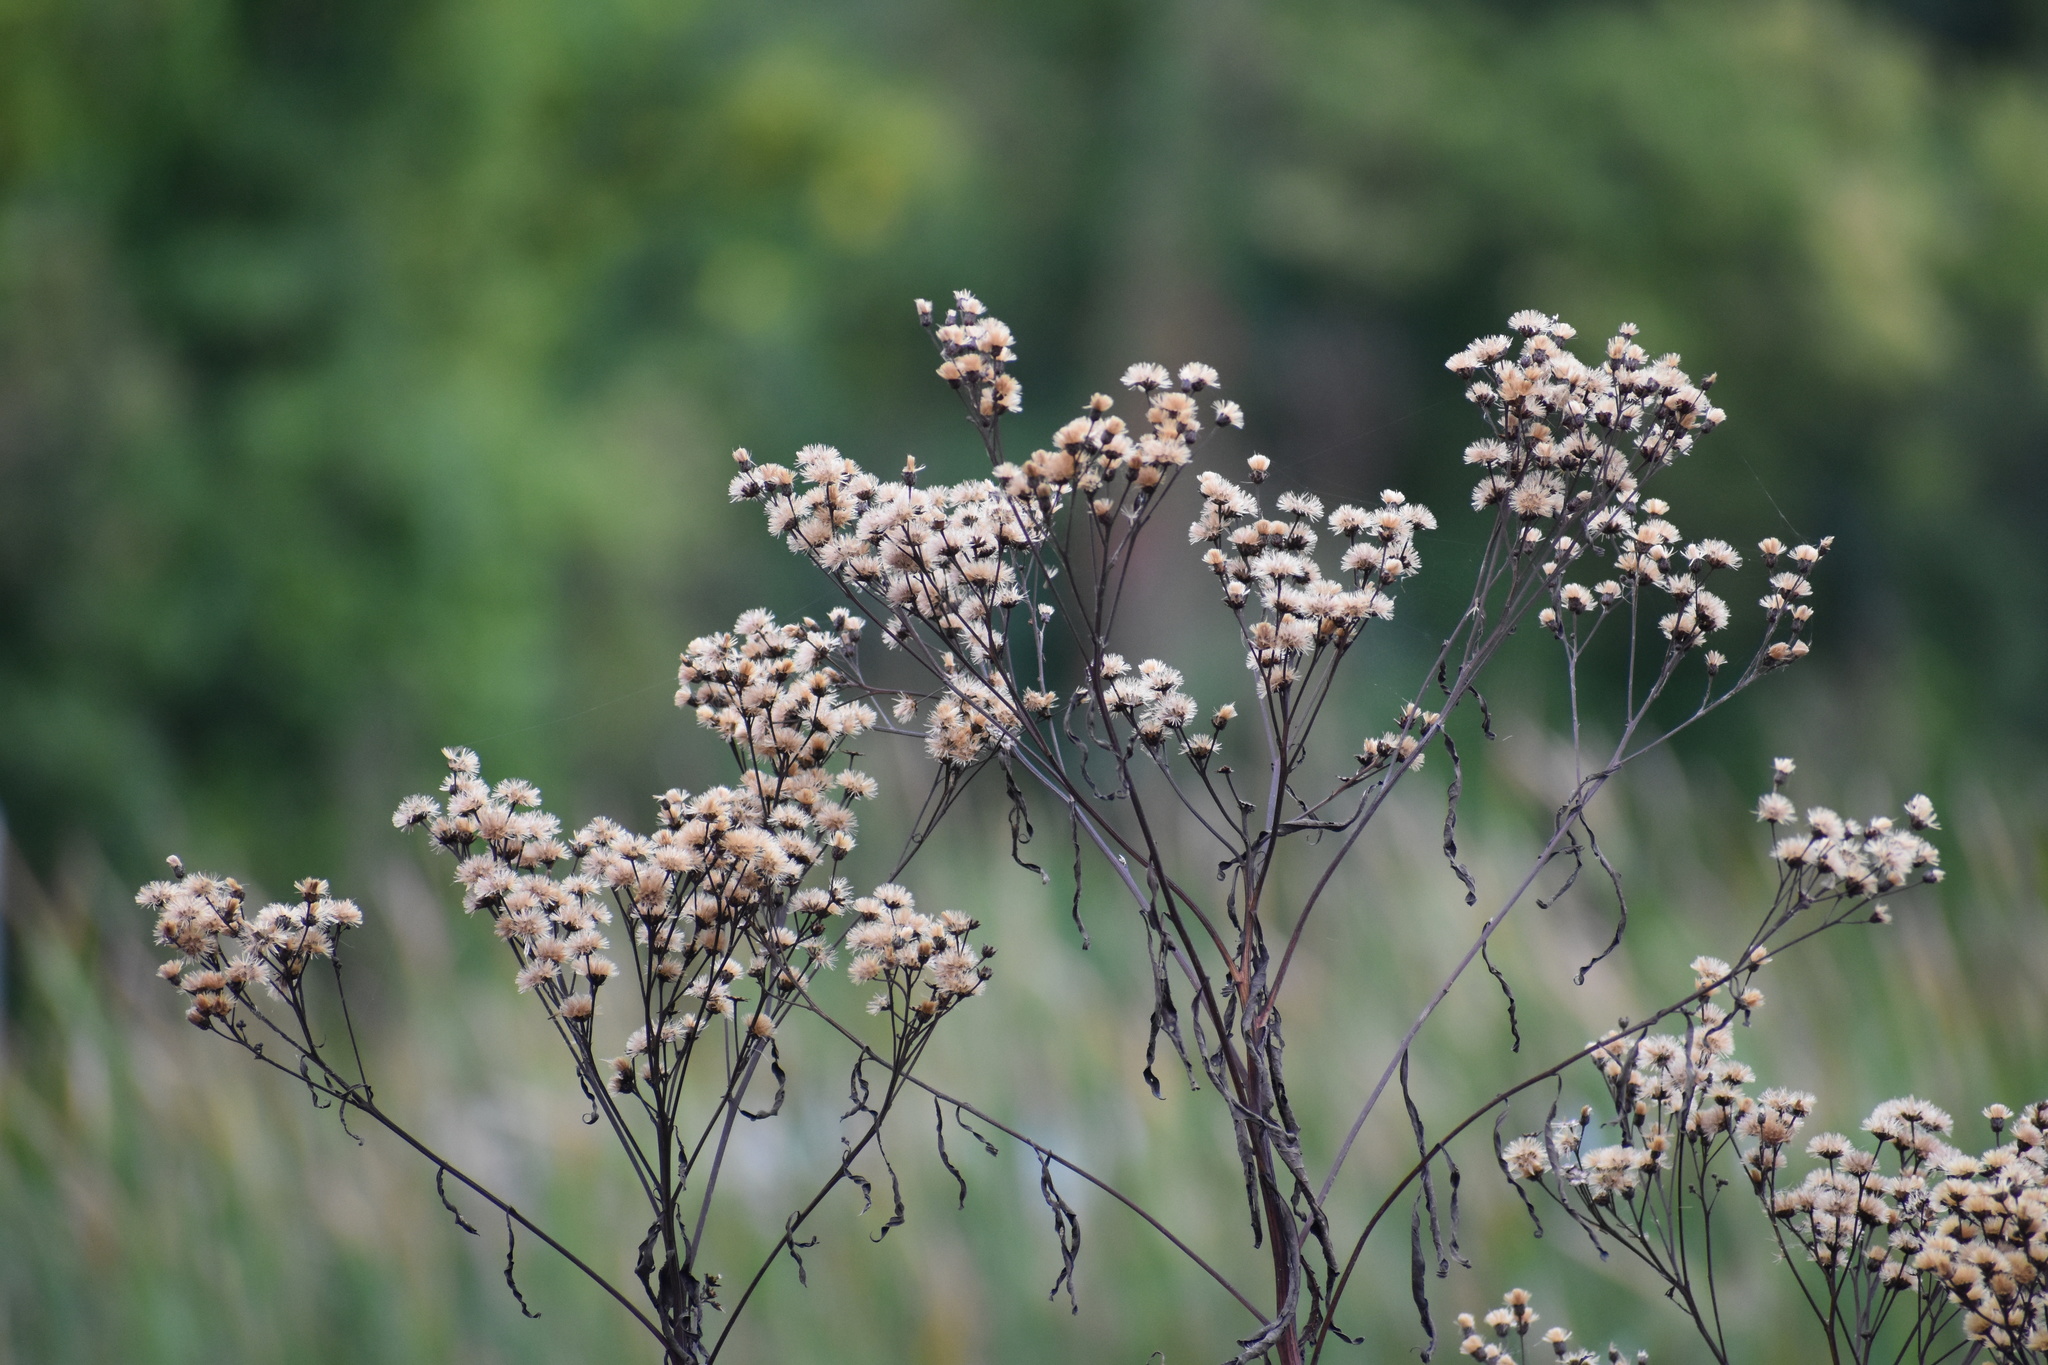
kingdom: Plantae
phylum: Tracheophyta
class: Magnoliopsida
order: Asterales
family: Asteraceae
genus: Vernonia
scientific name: Vernonia gigantea
